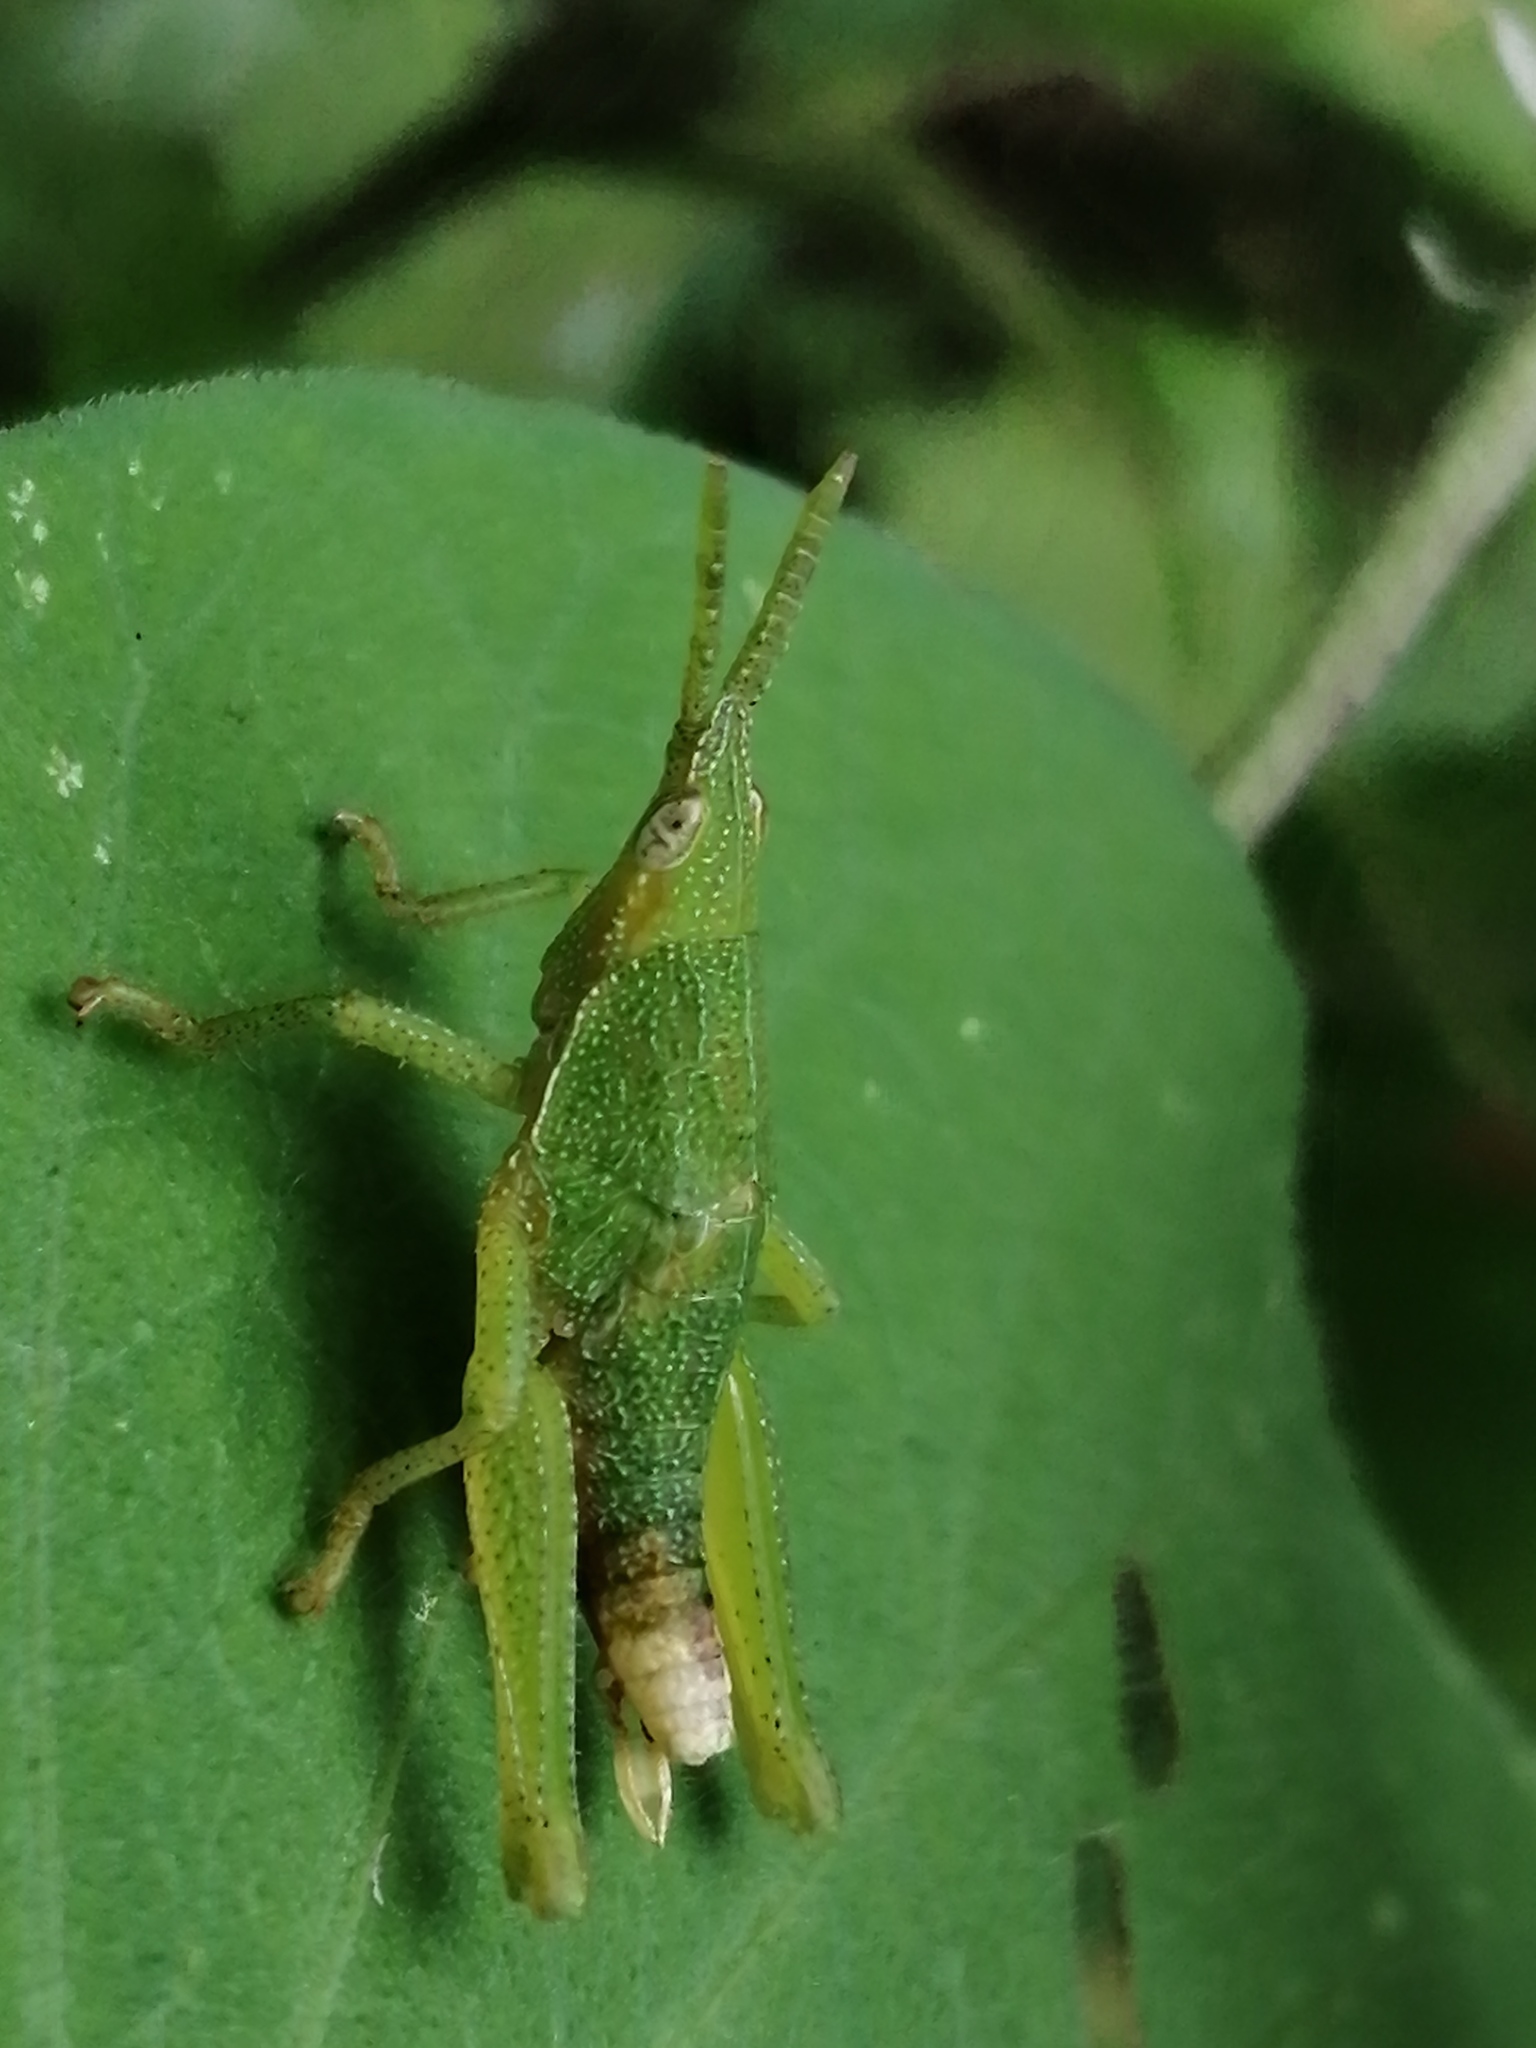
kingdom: Animalia
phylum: Arthropoda
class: Insecta
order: Orthoptera
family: Pyrgomorphidae
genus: Prosphena
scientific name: Prosphena scudderi
